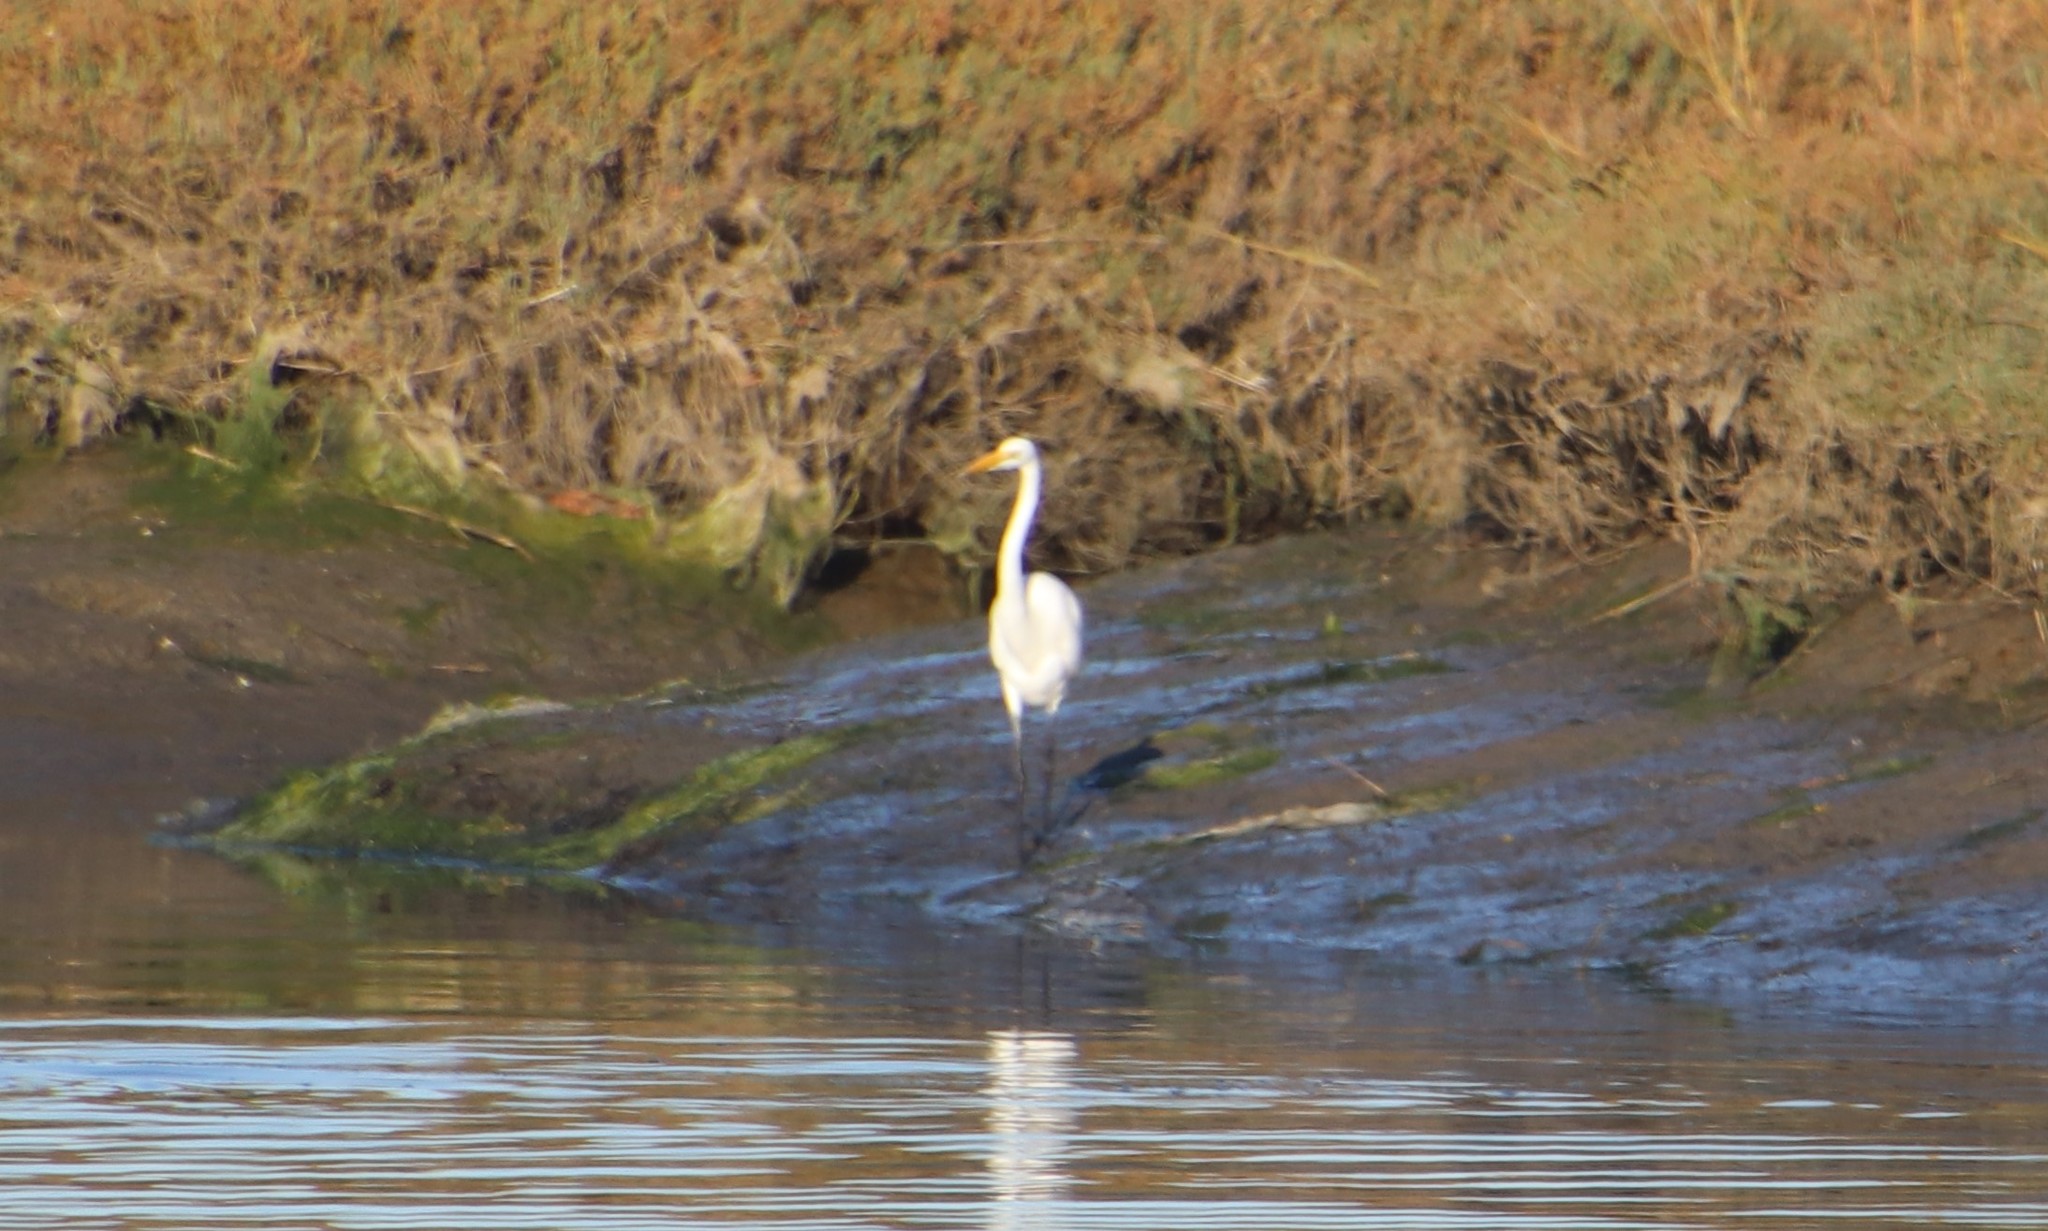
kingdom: Animalia
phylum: Chordata
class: Aves
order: Pelecaniformes
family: Ardeidae
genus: Ardea
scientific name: Ardea alba
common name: Great egret
